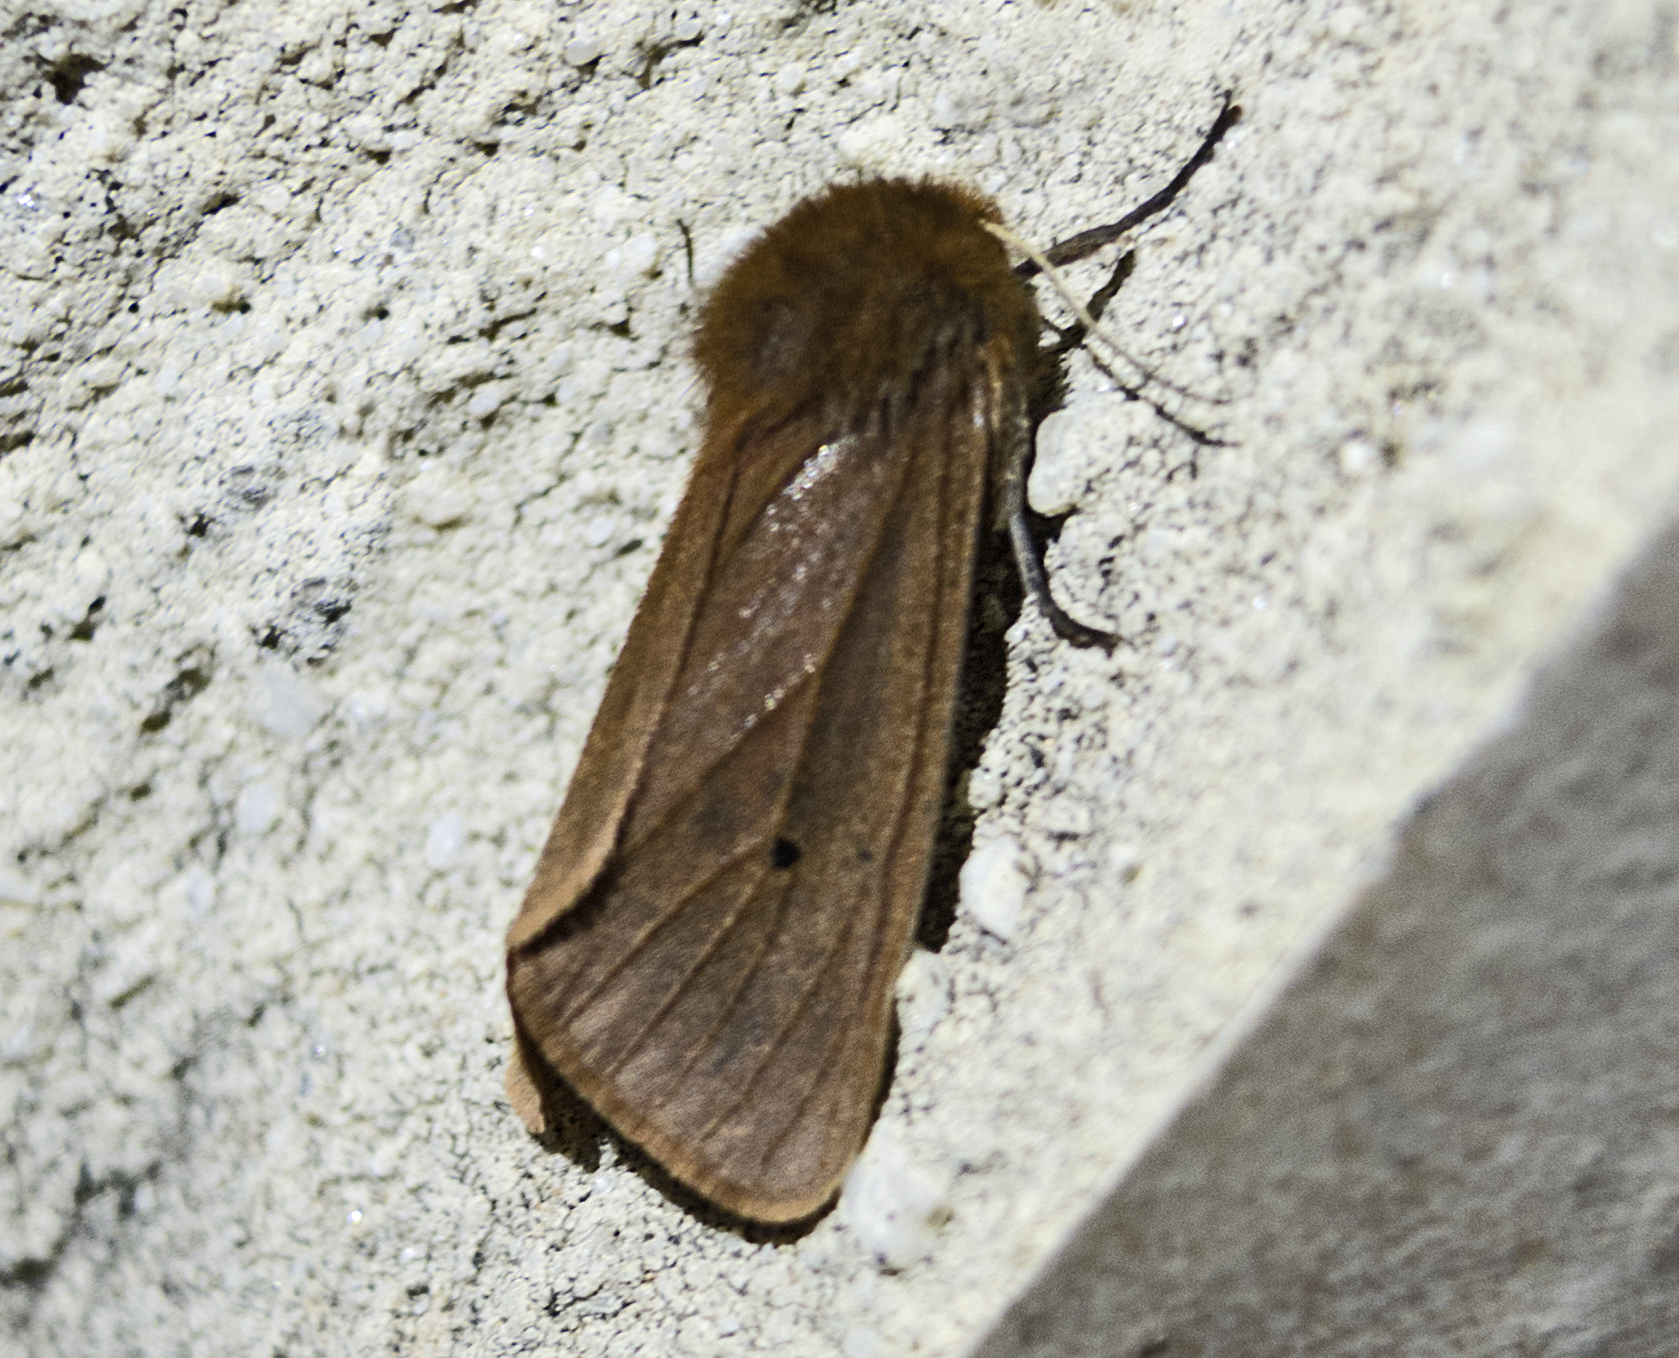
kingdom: Animalia
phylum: Arthropoda
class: Insecta
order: Lepidoptera
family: Erebidae
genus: Phragmatobia
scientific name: Phragmatobia fuliginosa
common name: Ruby tiger
